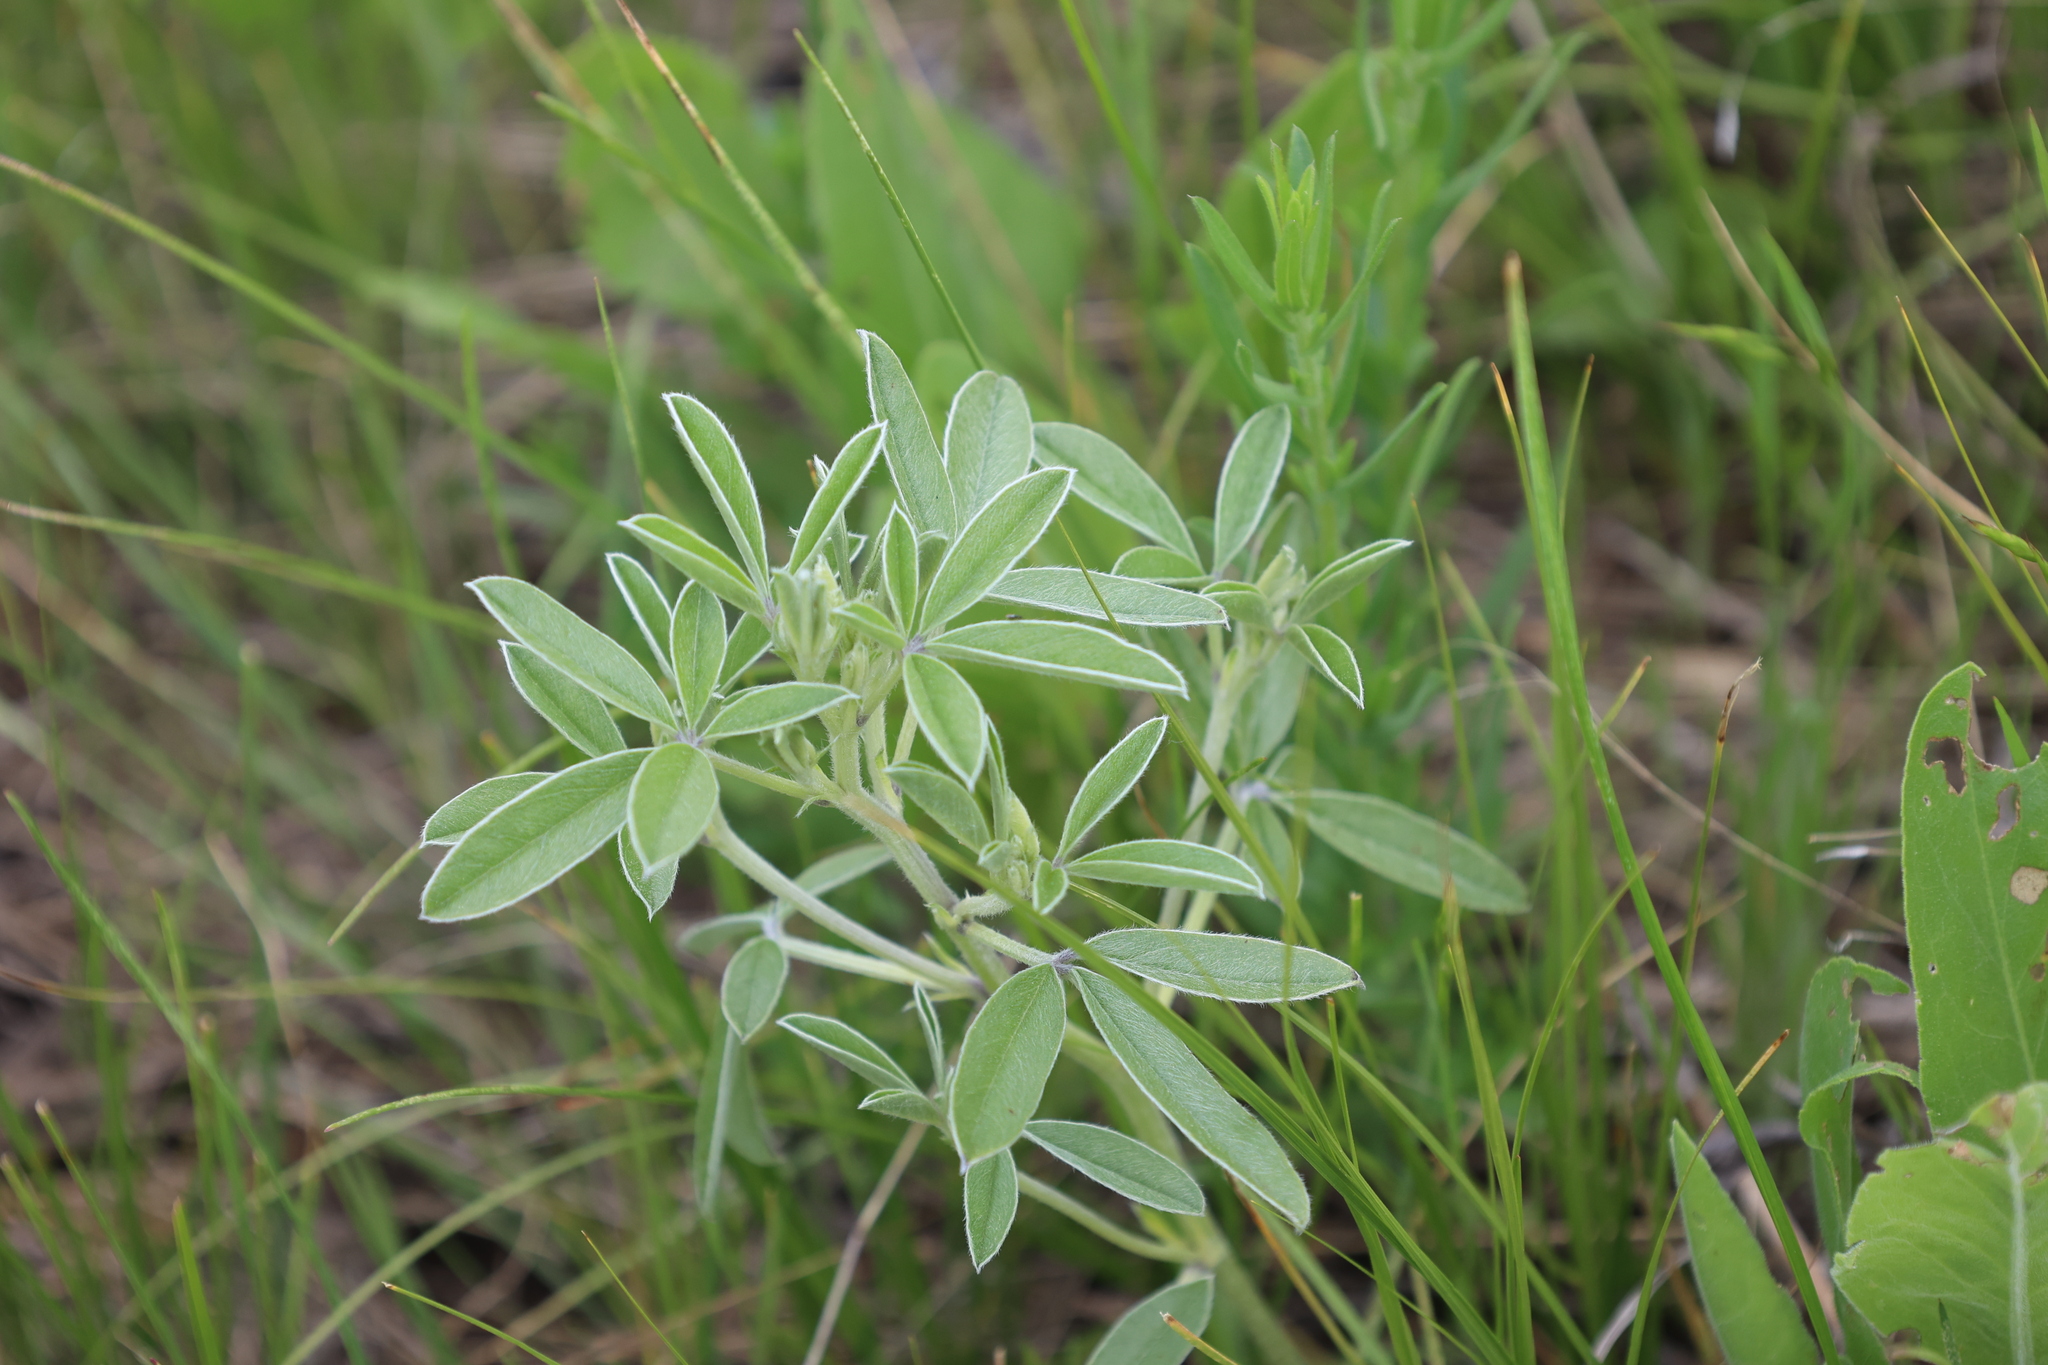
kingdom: Plantae
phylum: Tracheophyta
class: Magnoliopsida
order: Fabales
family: Fabaceae
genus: Pediomelum
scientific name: Pediomelum argophyllum
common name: Silver-leaved indian breadroot
